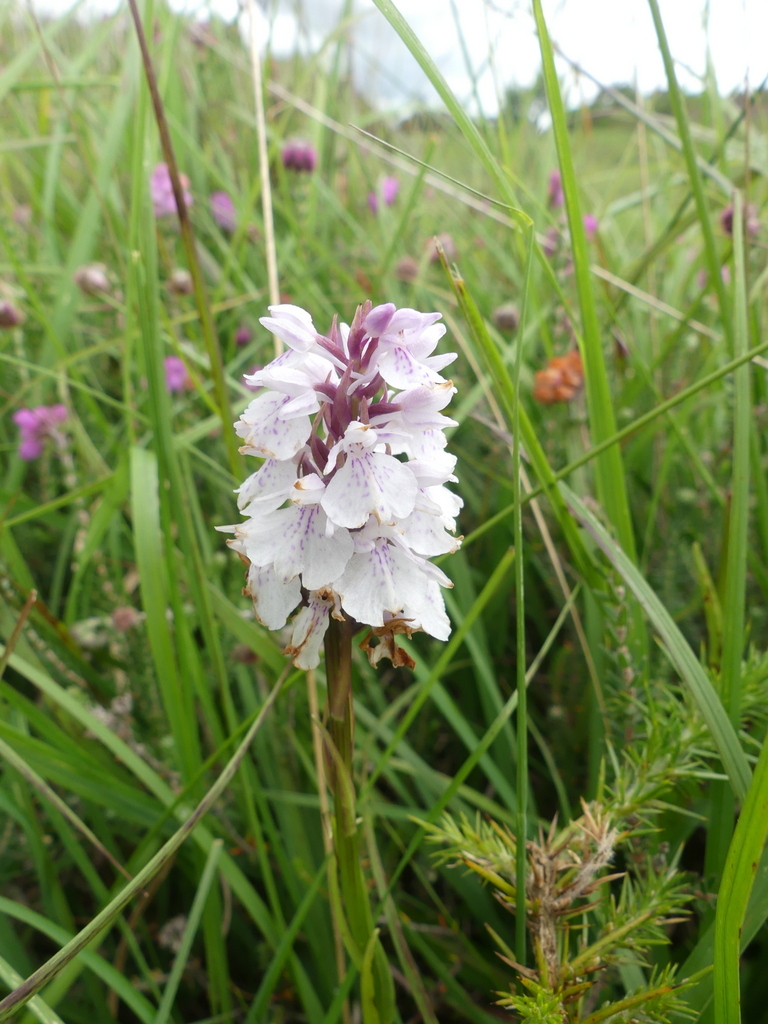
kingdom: Plantae
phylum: Tracheophyta
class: Liliopsida
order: Asparagales
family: Orchidaceae
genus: Dactylorhiza
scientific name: Dactylorhiza maculata
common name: Heath spotted-orchid
